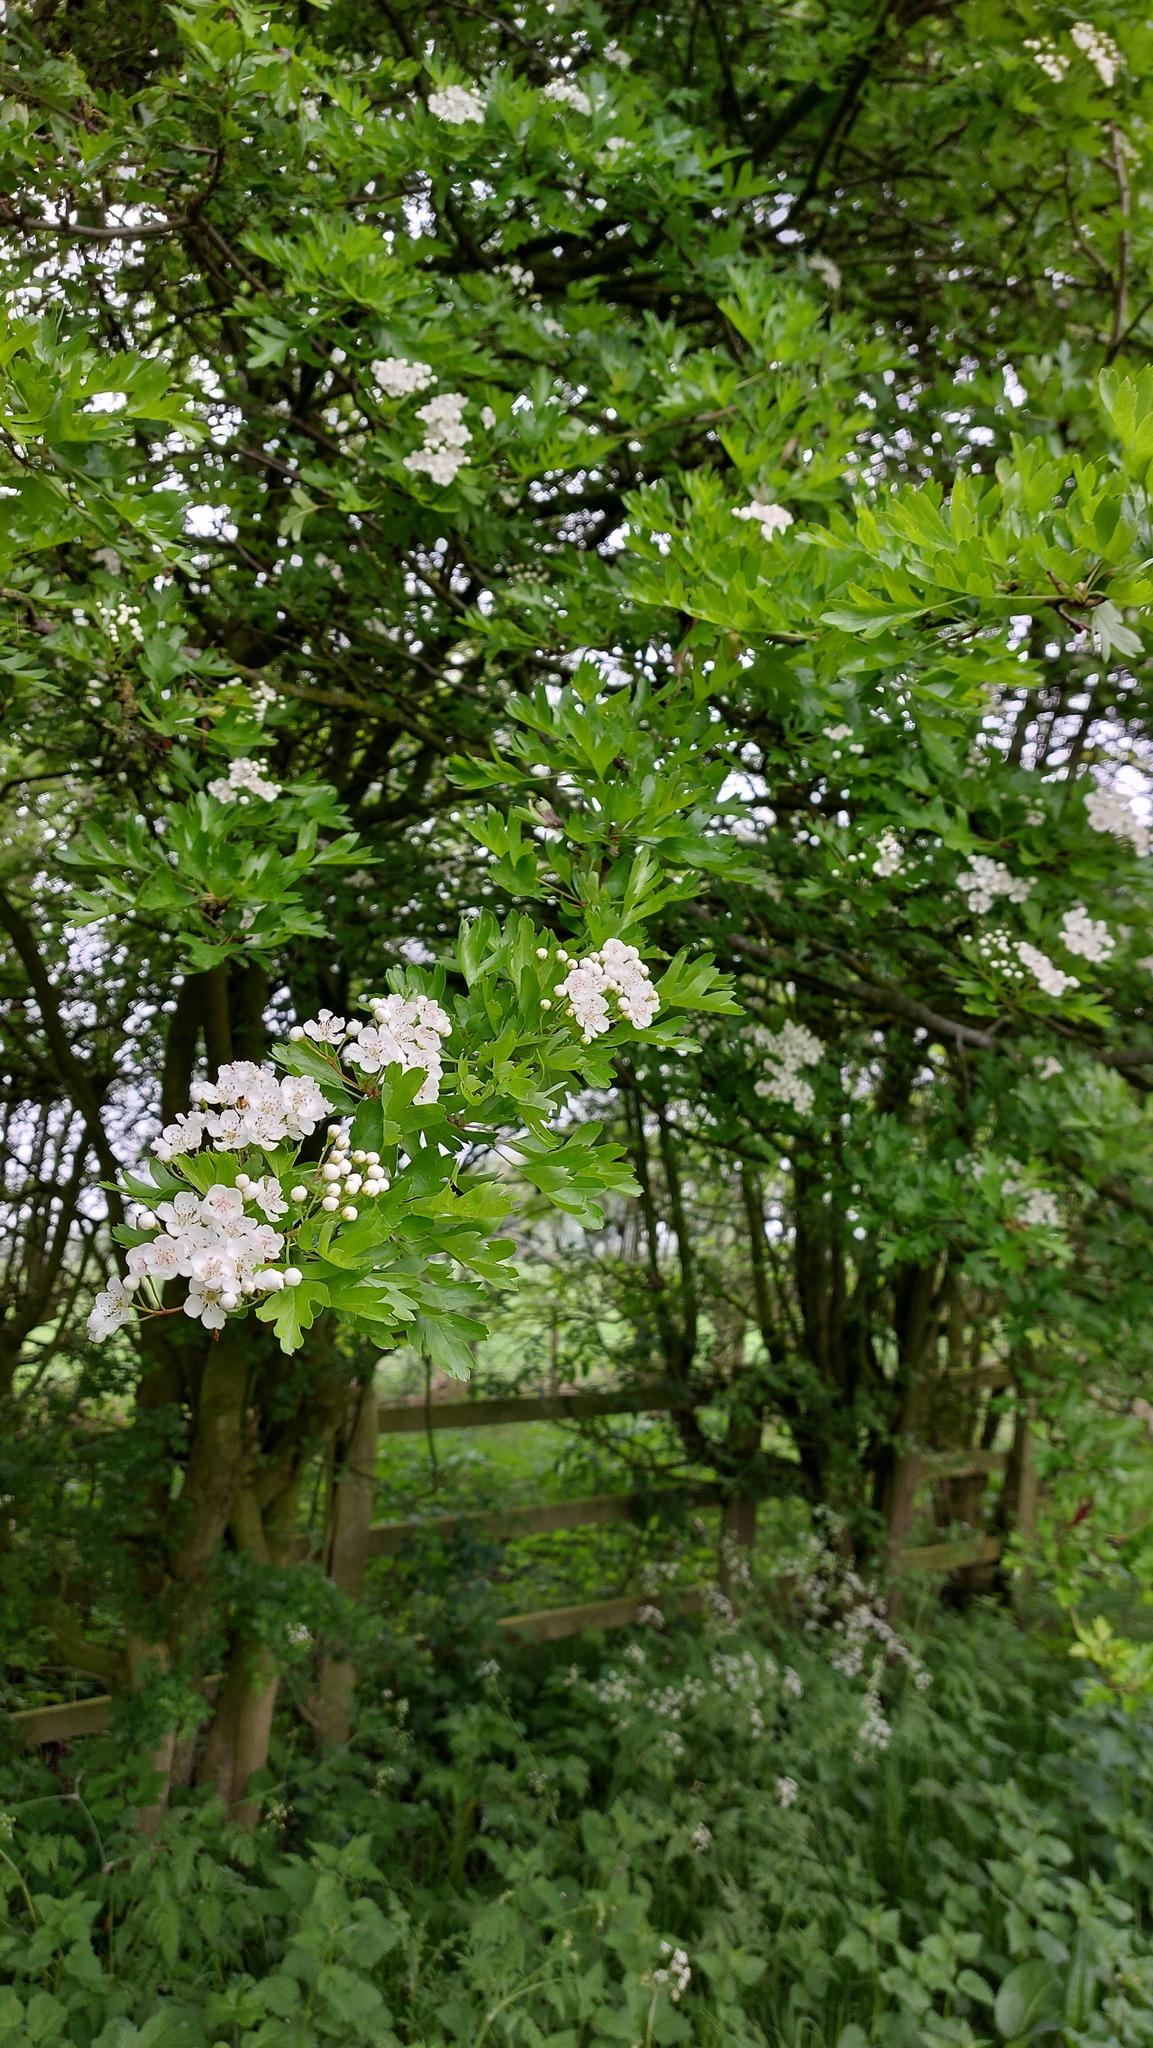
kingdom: Plantae
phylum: Tracheophyta
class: Magnoliopsida
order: Rosales
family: Rosaceae
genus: Crataegus
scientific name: Crataegus monogyna
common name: Hawthorn
